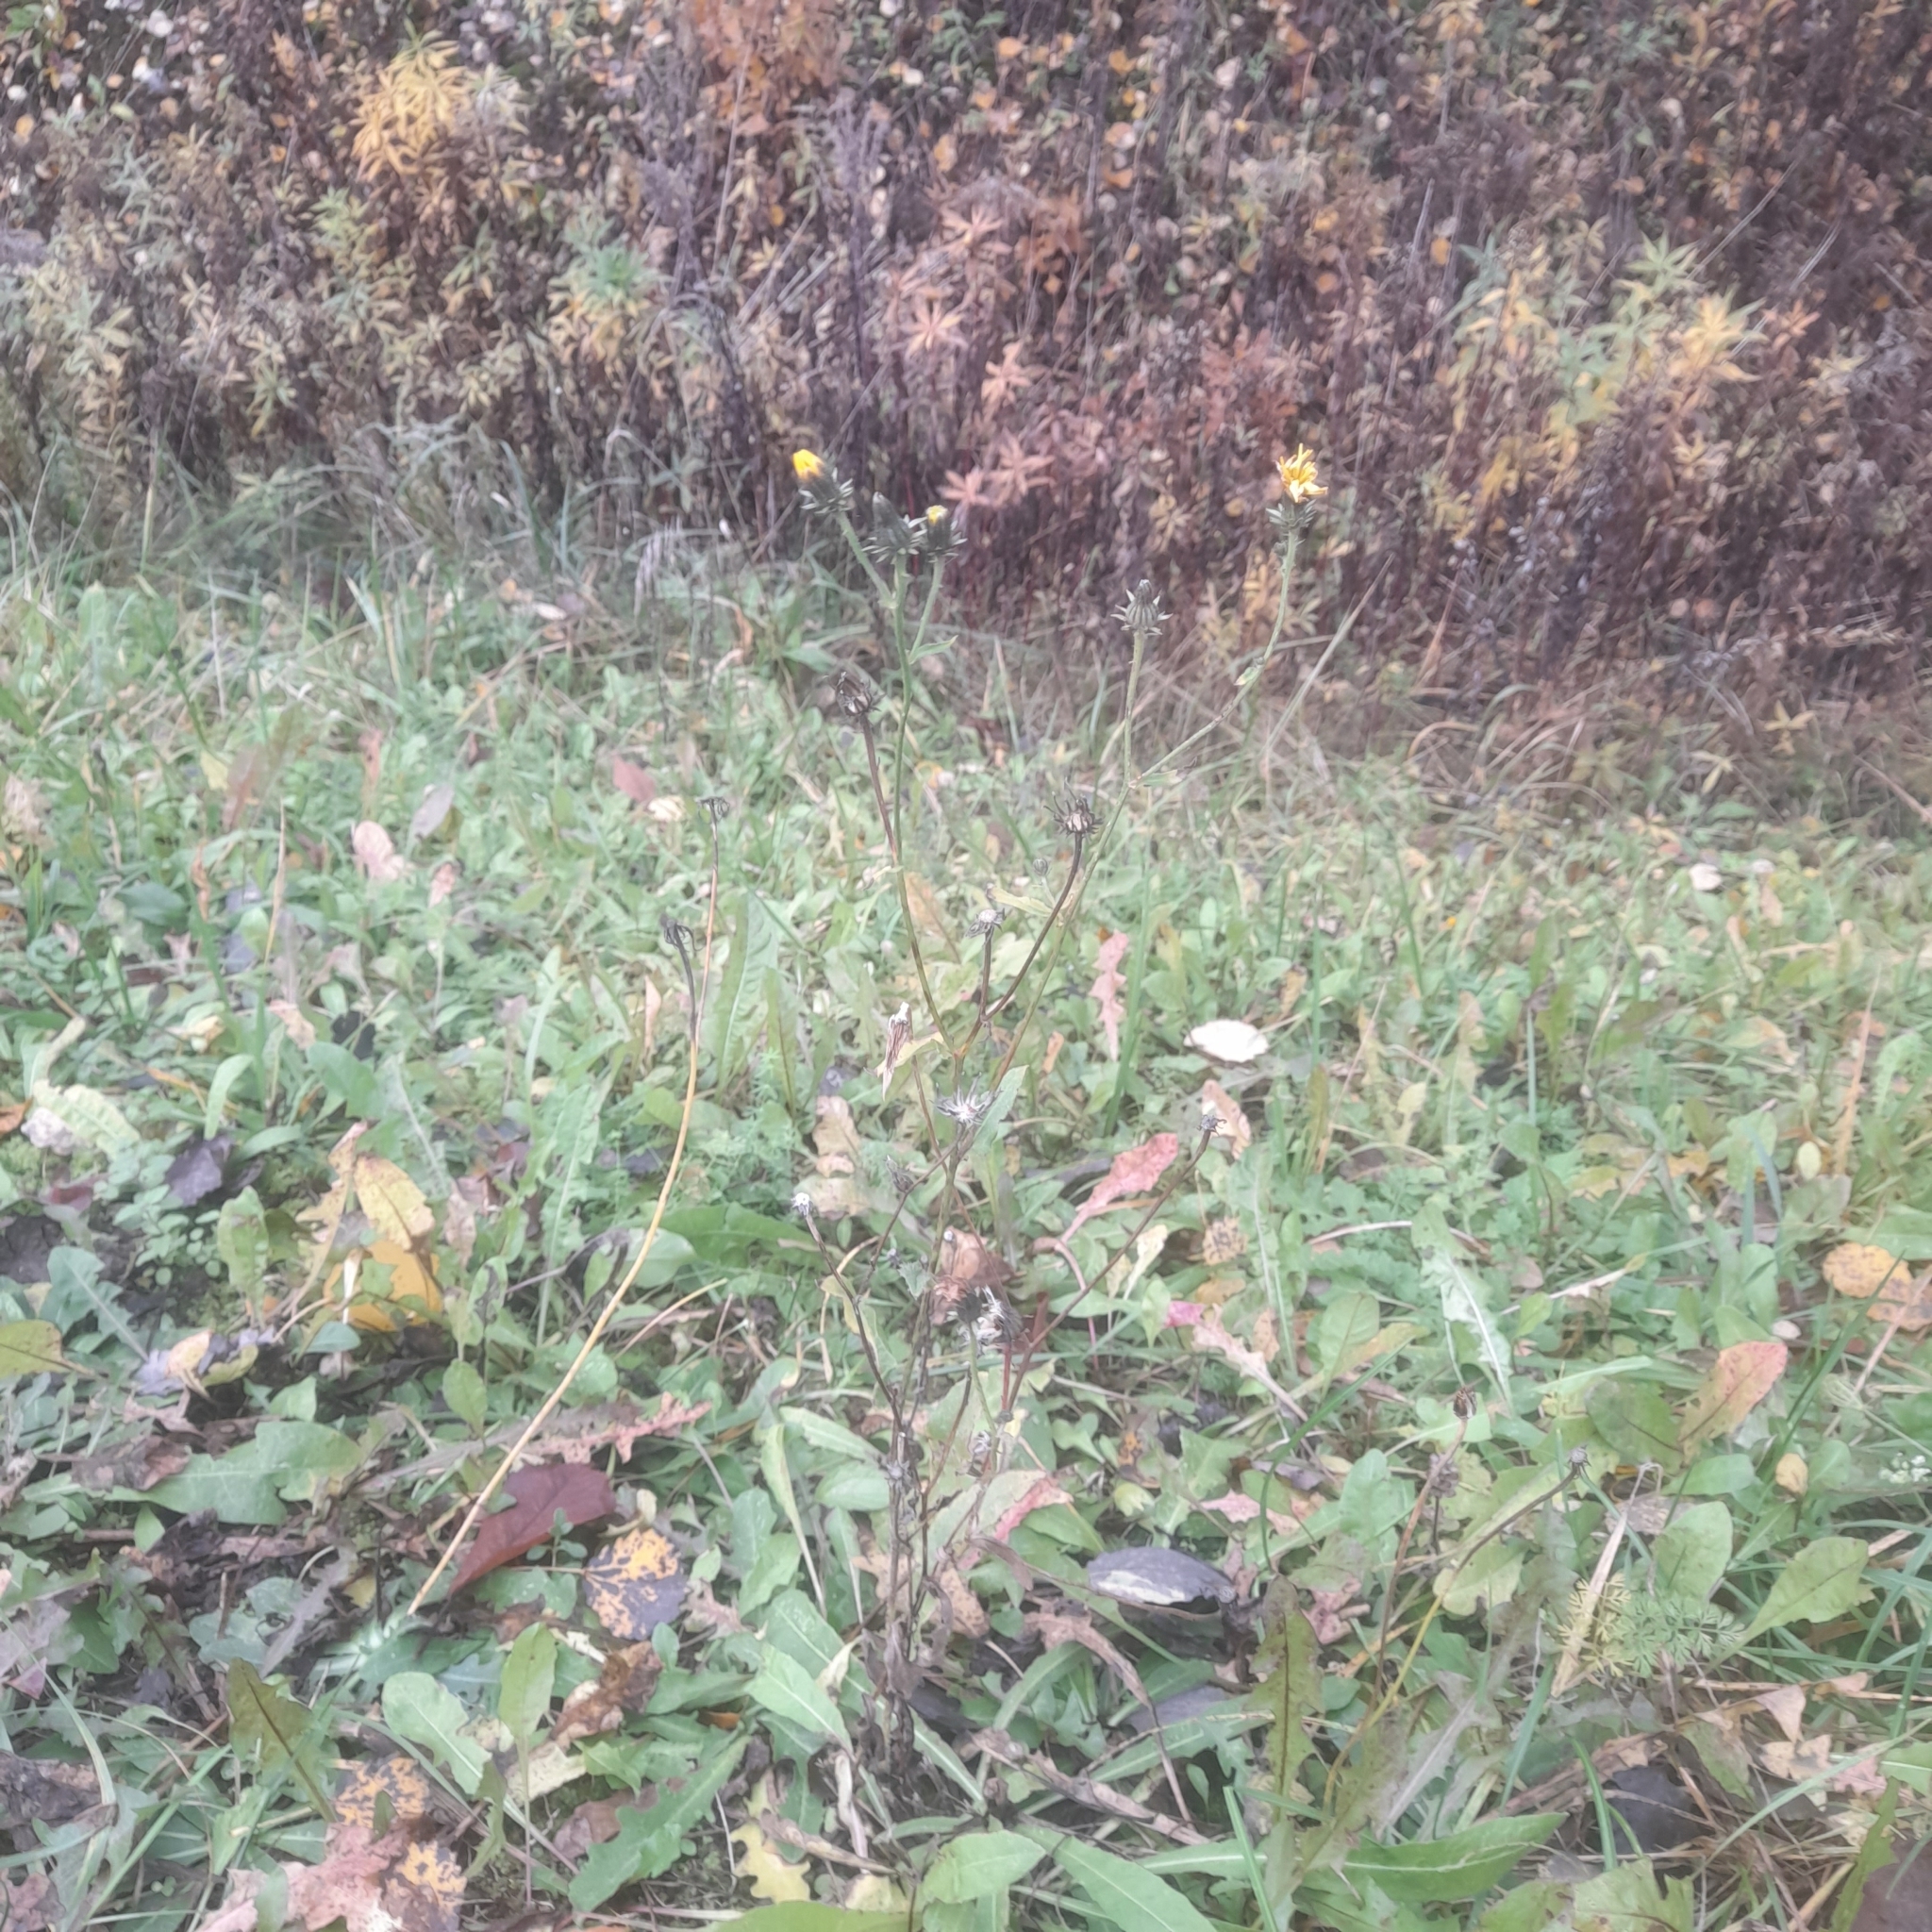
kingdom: Plantae
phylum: Tracheophyta
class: Magnoliopsida
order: Asterales
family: Asteraceae
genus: Picris
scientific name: Picris hieracioides
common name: Hawkweed oxtongue
